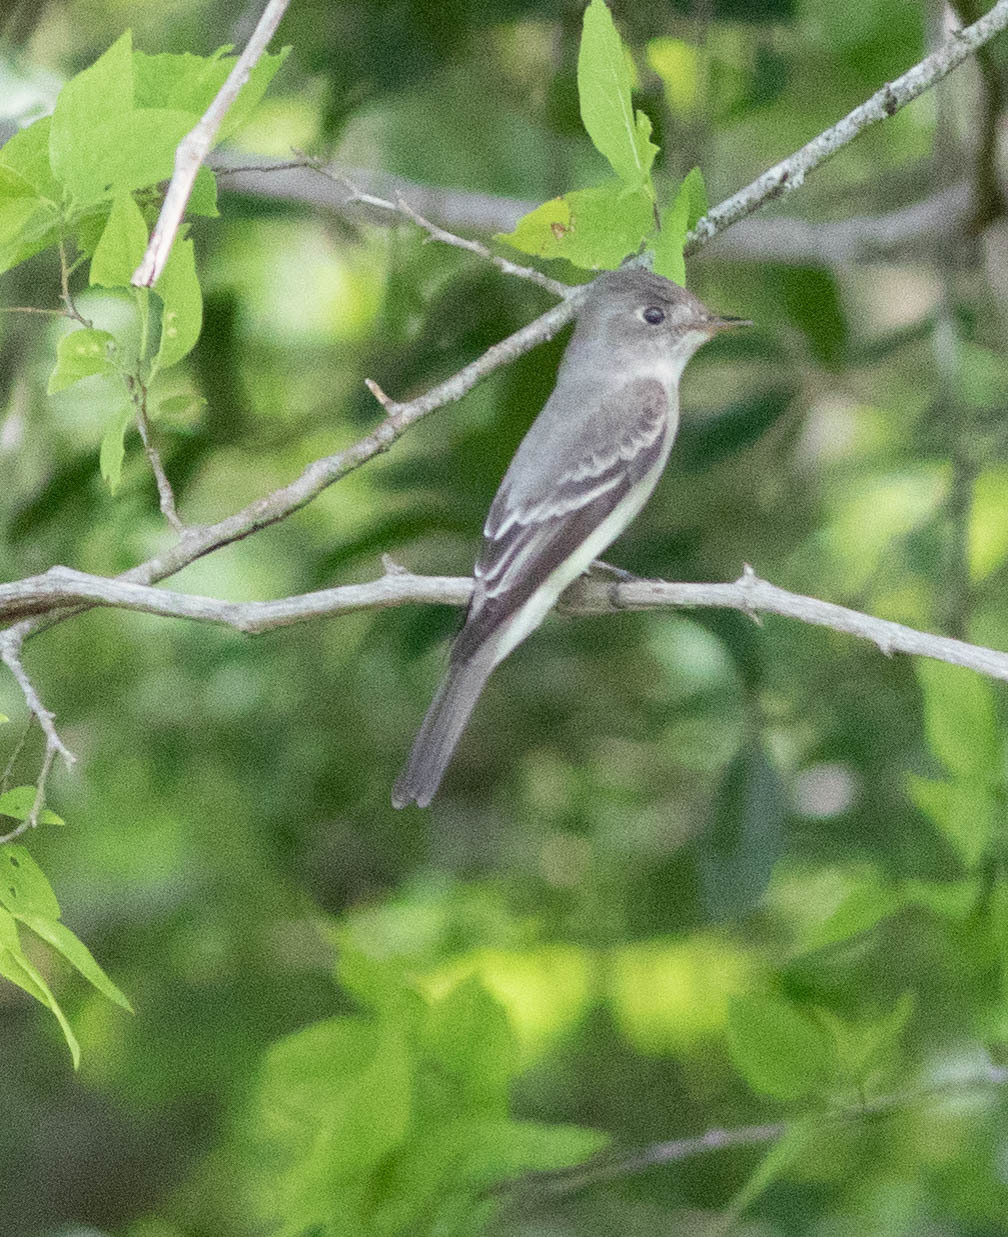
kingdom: Animalia
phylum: Chordata
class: Aves
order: Passeriformes
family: Tyrannidae
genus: Contopus
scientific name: Contopus virens
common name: Eastern wood-pewee
